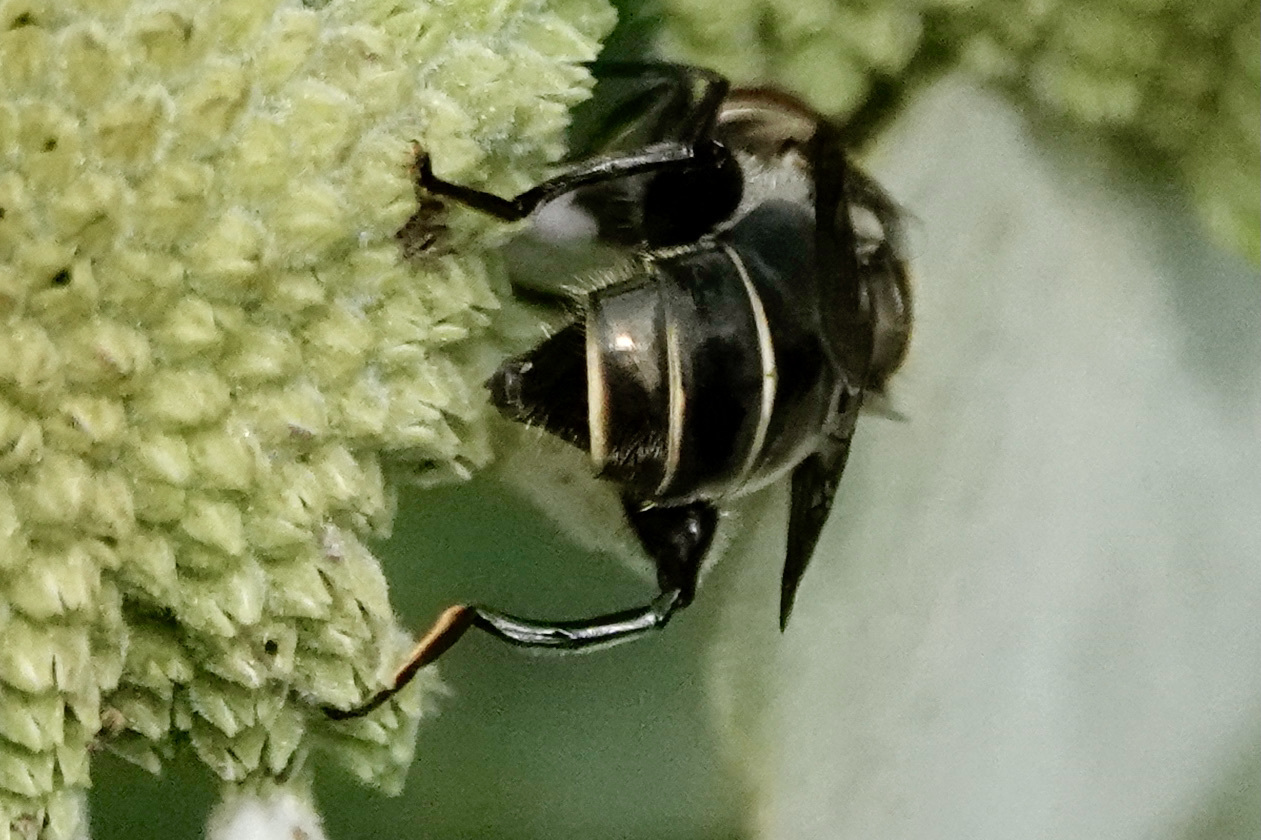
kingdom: Animalia
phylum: Arthropoda
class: Insecta
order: Diptera
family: Syrphidae
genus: Palpada
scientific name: Palpada furcata
